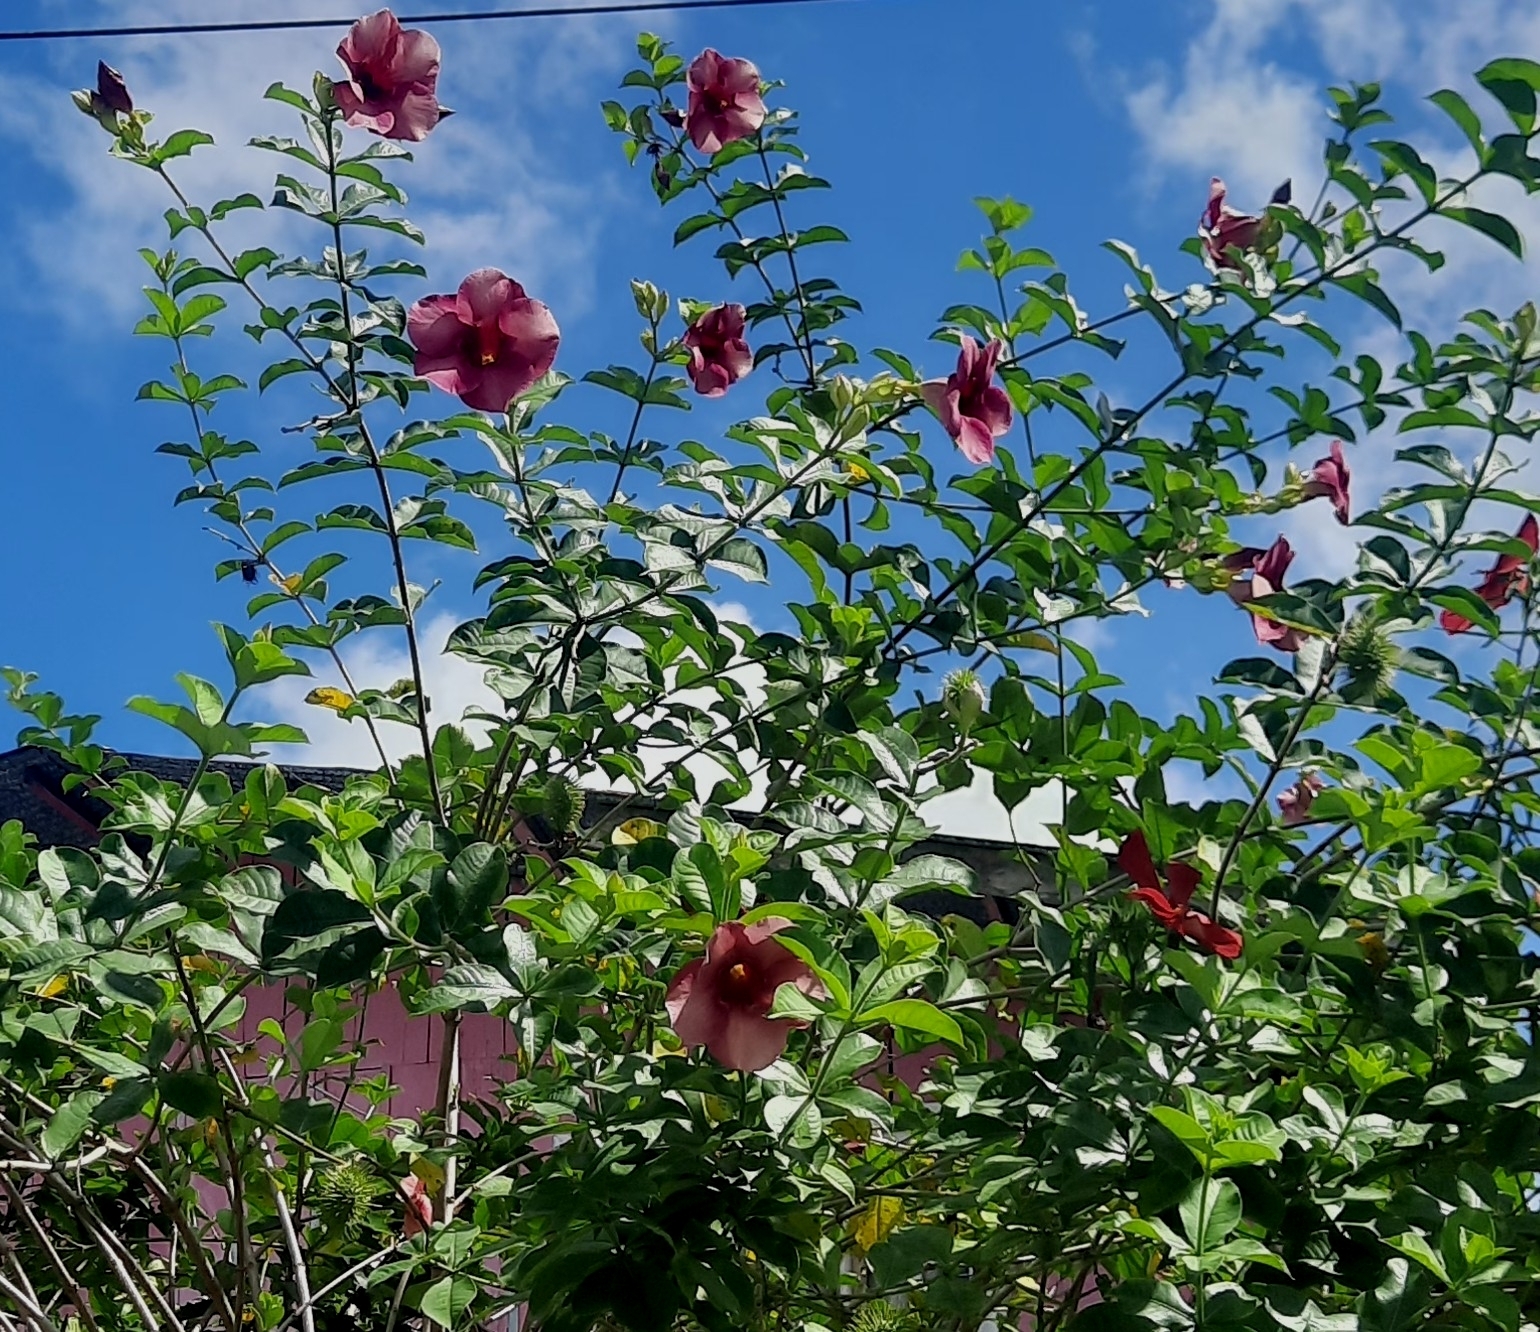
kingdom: Plantae
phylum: Tracheophyta
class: Magnoliopsida
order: Gentianales
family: Apocynaceae
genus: Allamanda
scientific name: Allamanda blanchetii
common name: Purple allamanda
